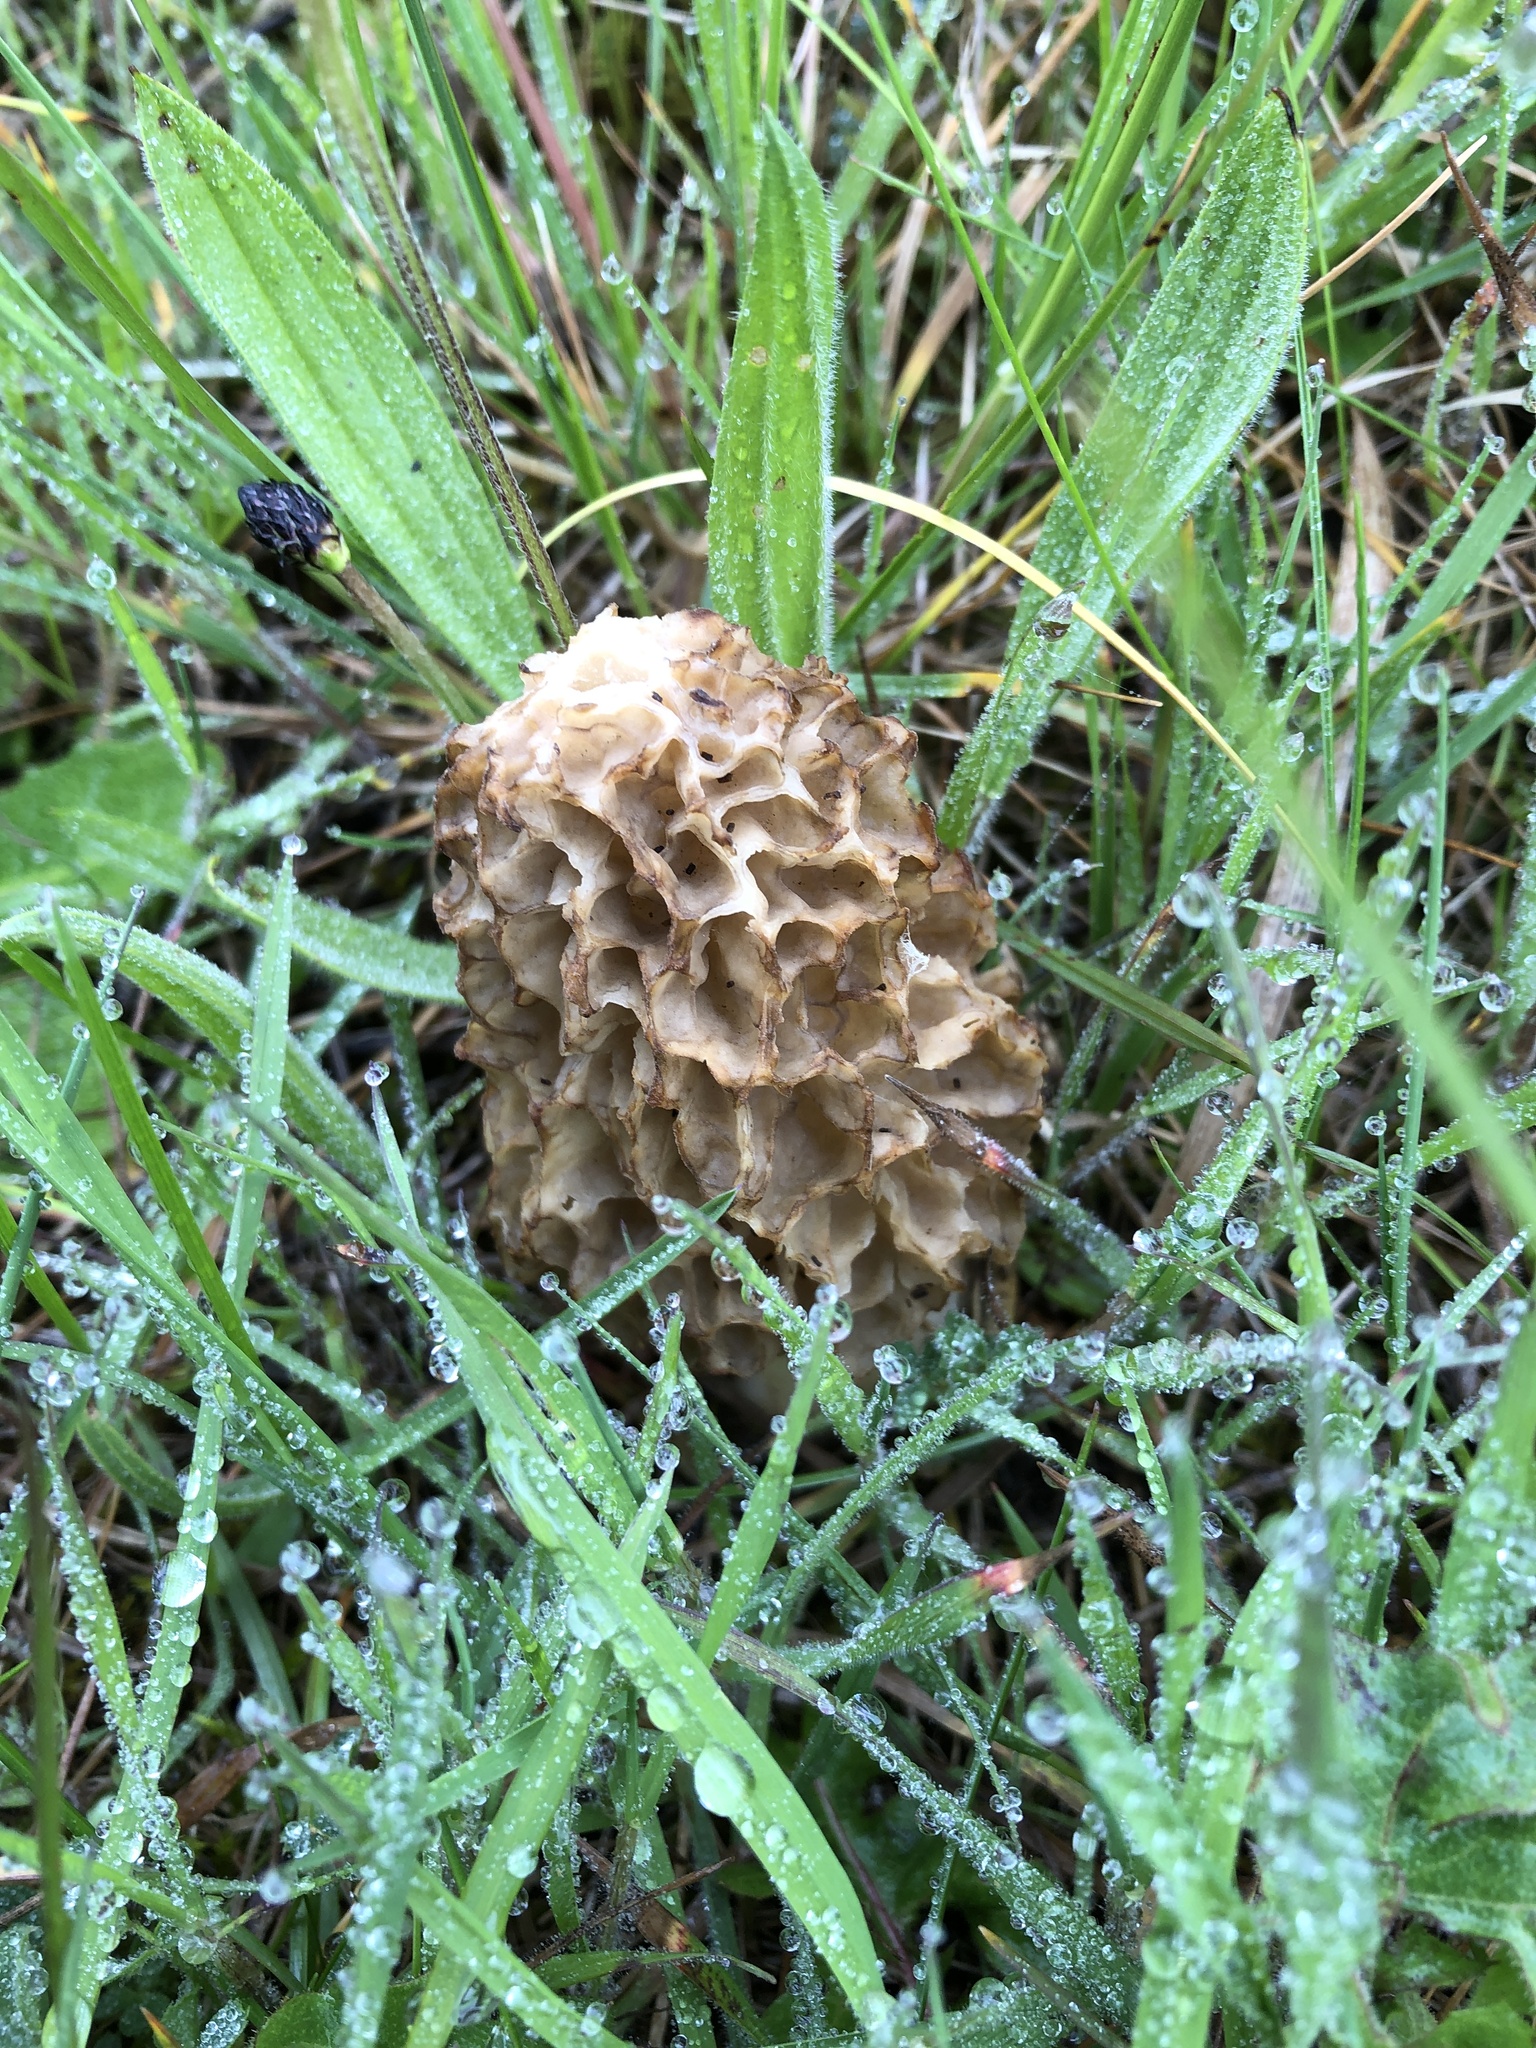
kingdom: Fungi
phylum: Ascomycota
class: Pezizomycetes
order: Pezizales
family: Morchellaceae
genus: Morchella
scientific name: Morchella esculenta
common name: Morel
